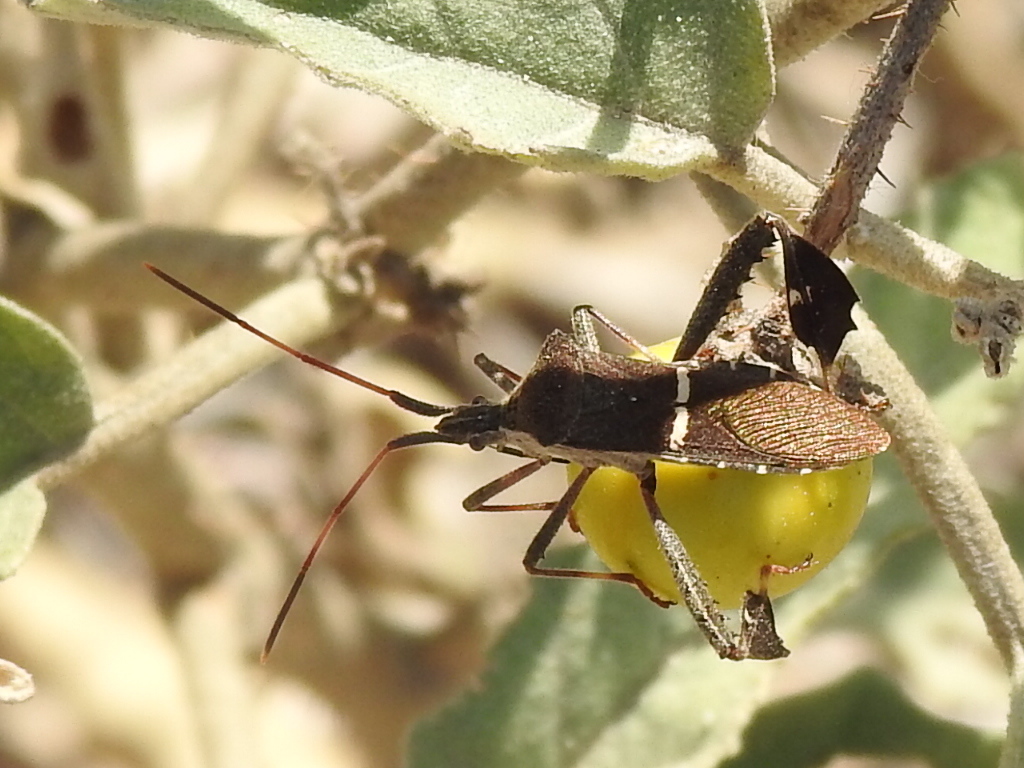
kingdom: Animalia
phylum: Arthropoda
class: Insecta
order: Hemiptera
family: Coreidae
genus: Leptoglossus
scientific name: Leptoglossus phyllopus
